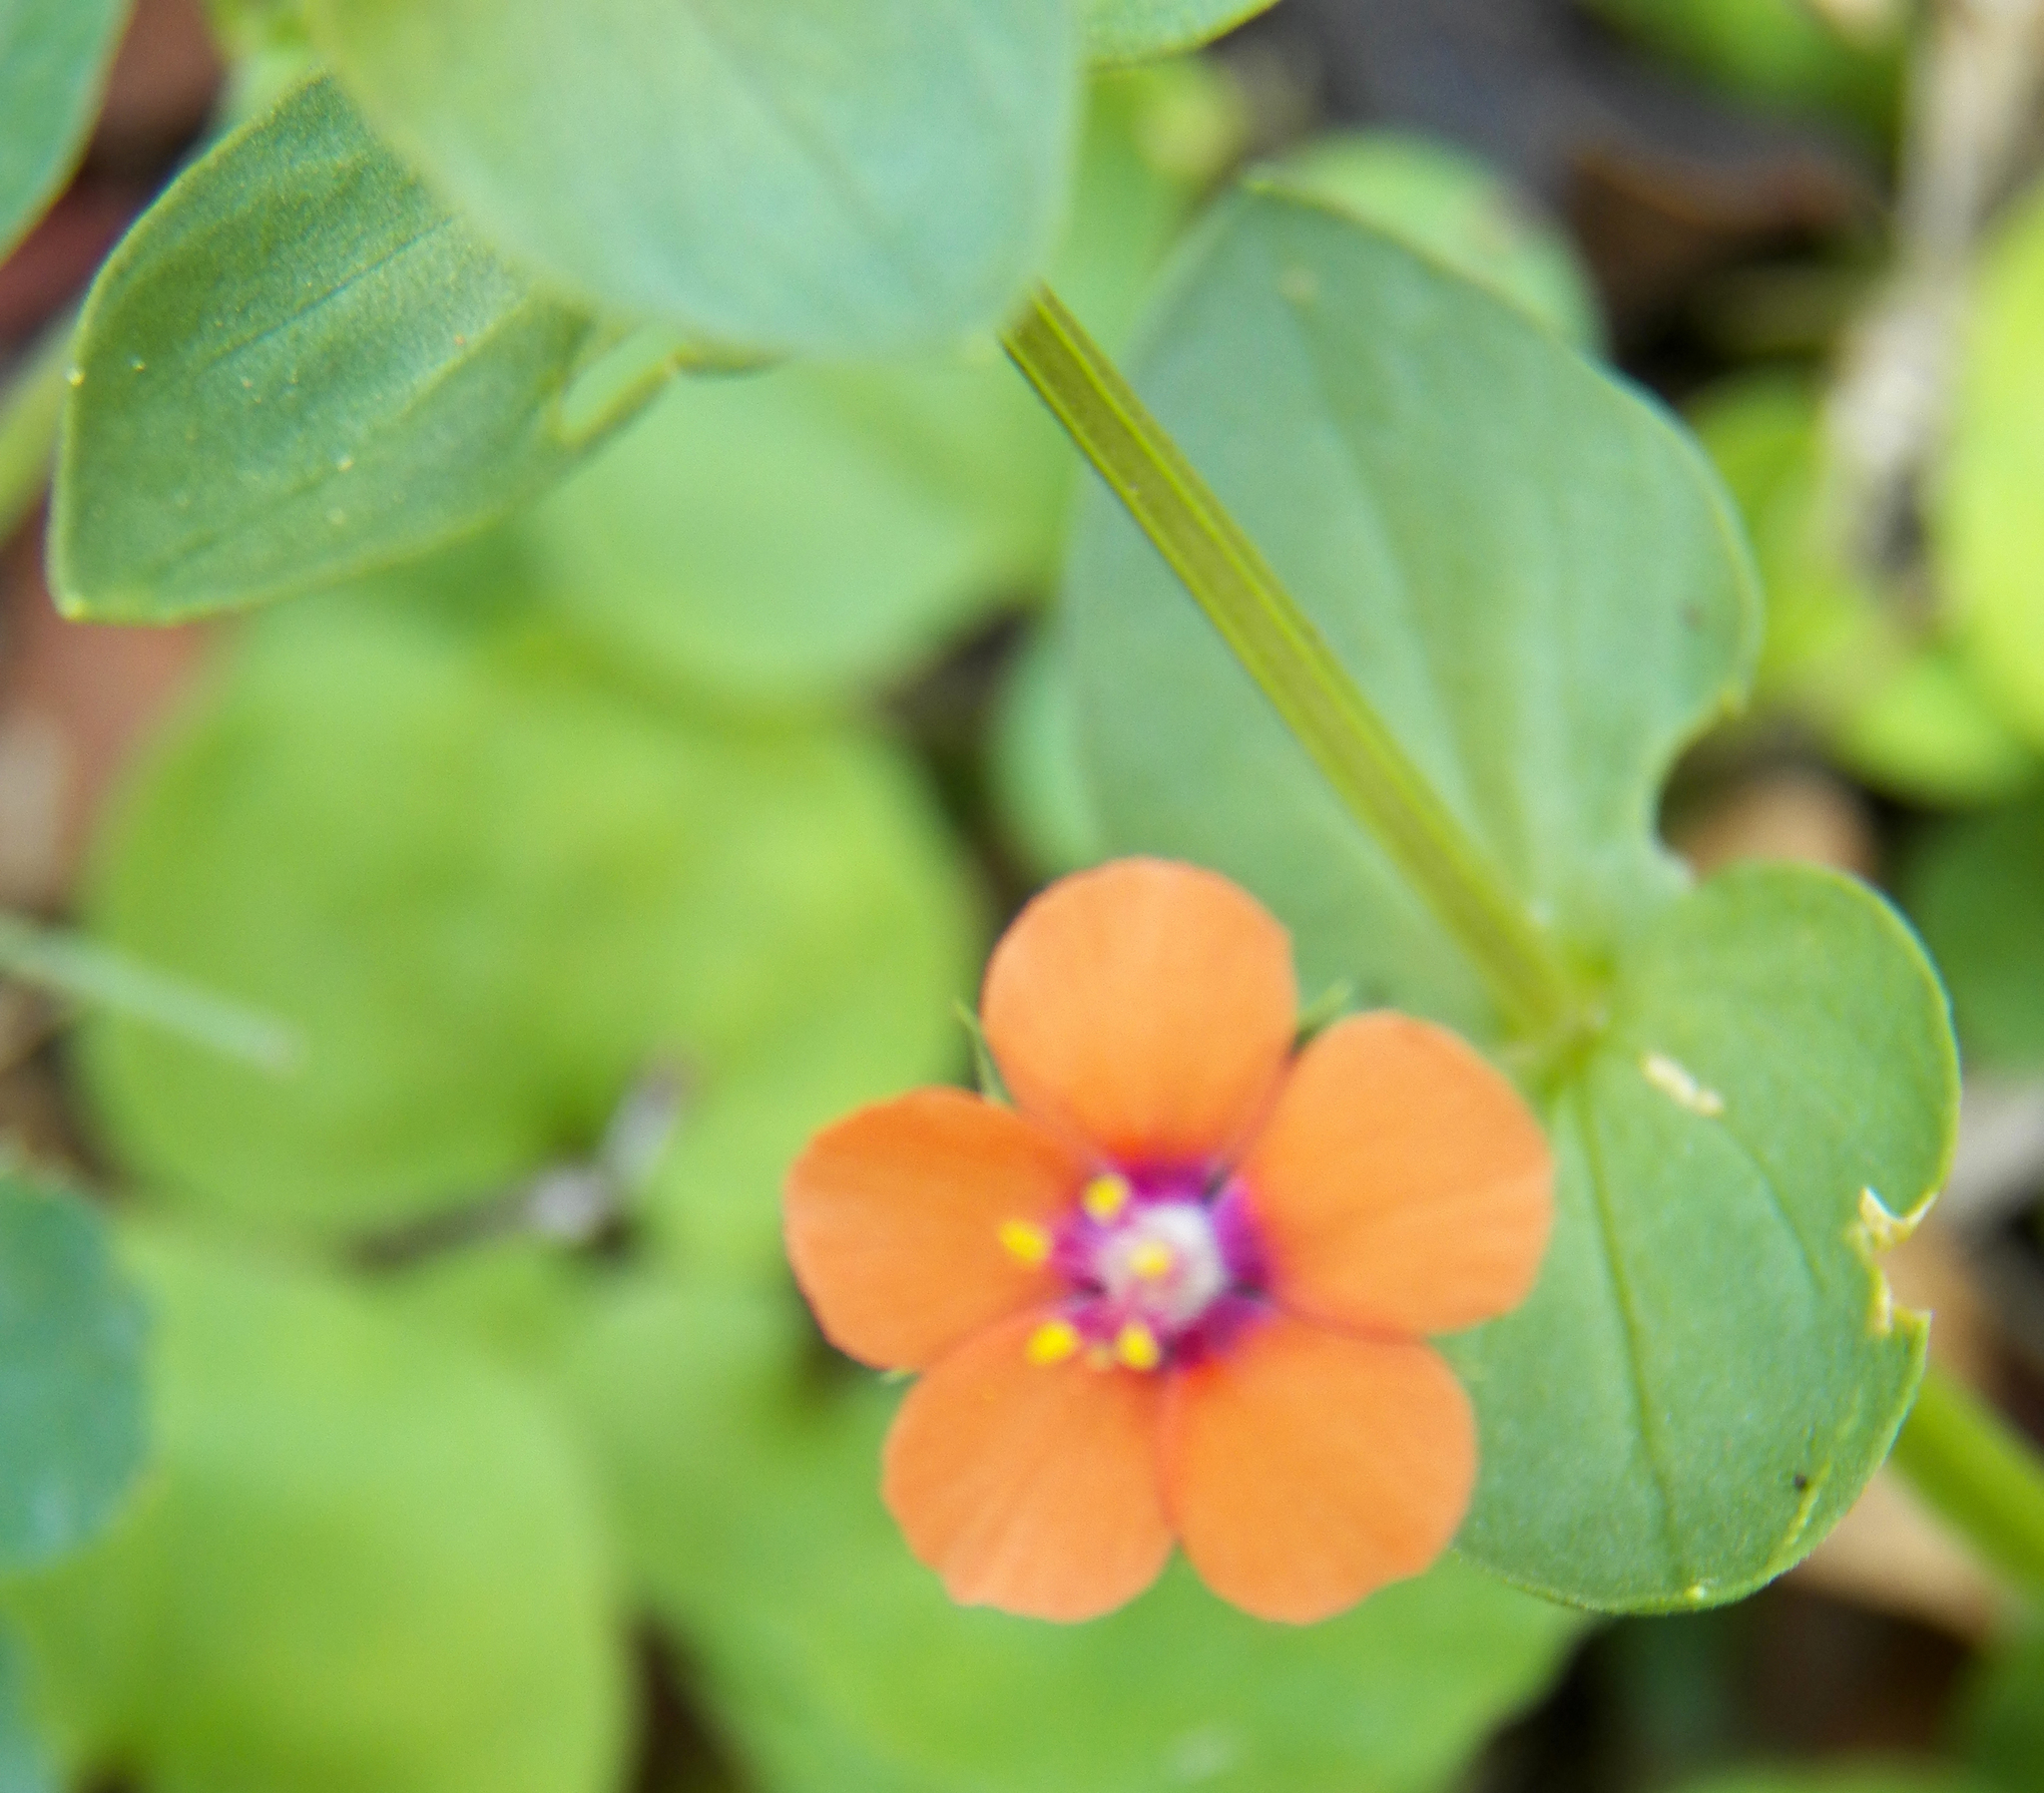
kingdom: Plantae
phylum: Tracheophyta
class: Magnoliopsida
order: Ericales
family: Primulaceae
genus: Lysimachia
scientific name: Lysimachia arvensis
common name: Scarlet pimpernel
